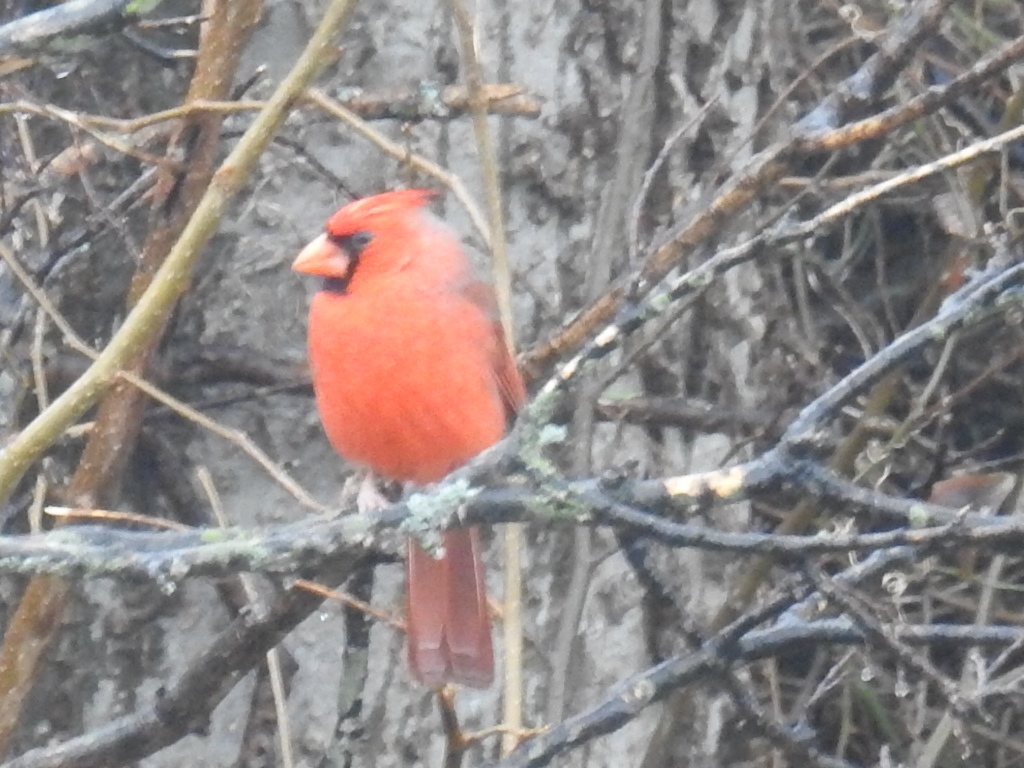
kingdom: Animalia
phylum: Chordata
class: Aves
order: Passeriformes
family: Cardinalidae
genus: Cardinalis
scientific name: Cardinalis cardinalis
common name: Northern cardinal
